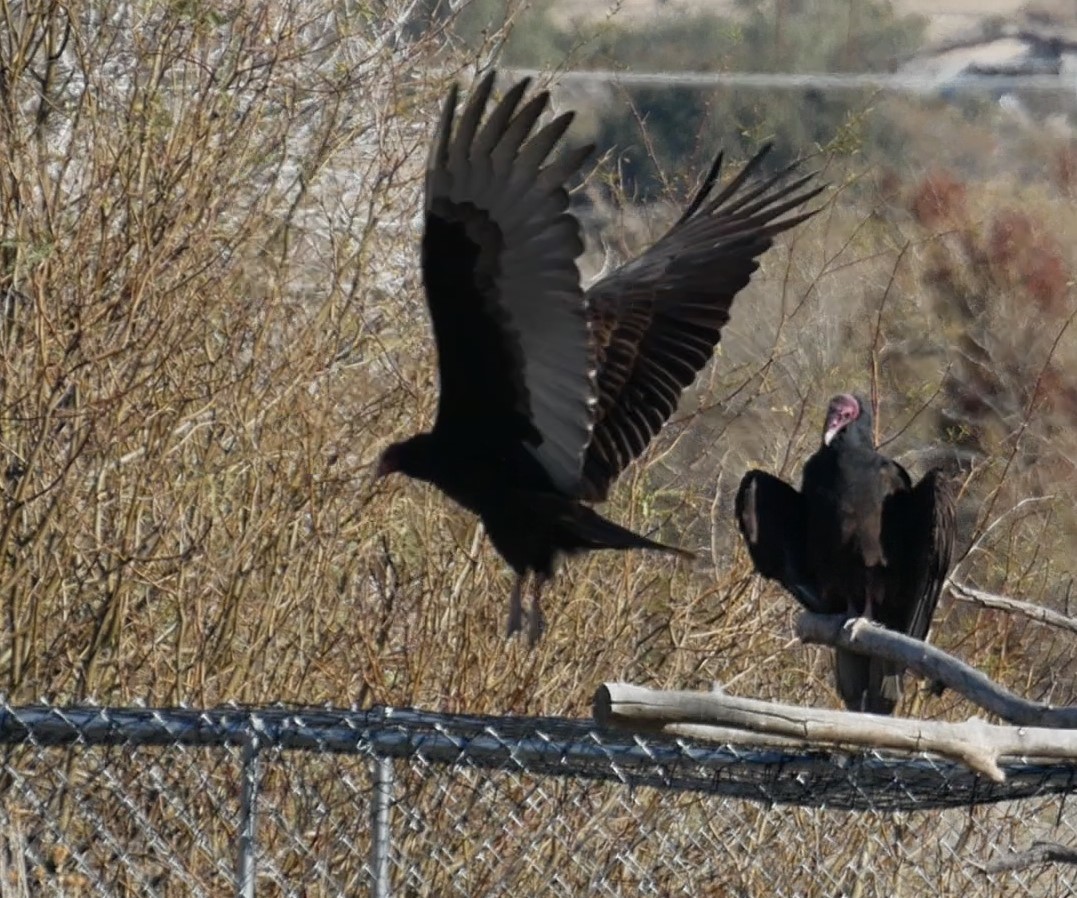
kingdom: Animalia
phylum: Chordata
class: Aves
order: Accipitriformes
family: Cathartidae
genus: Cathartes
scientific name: Cathartes aura
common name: Turkey vulture
